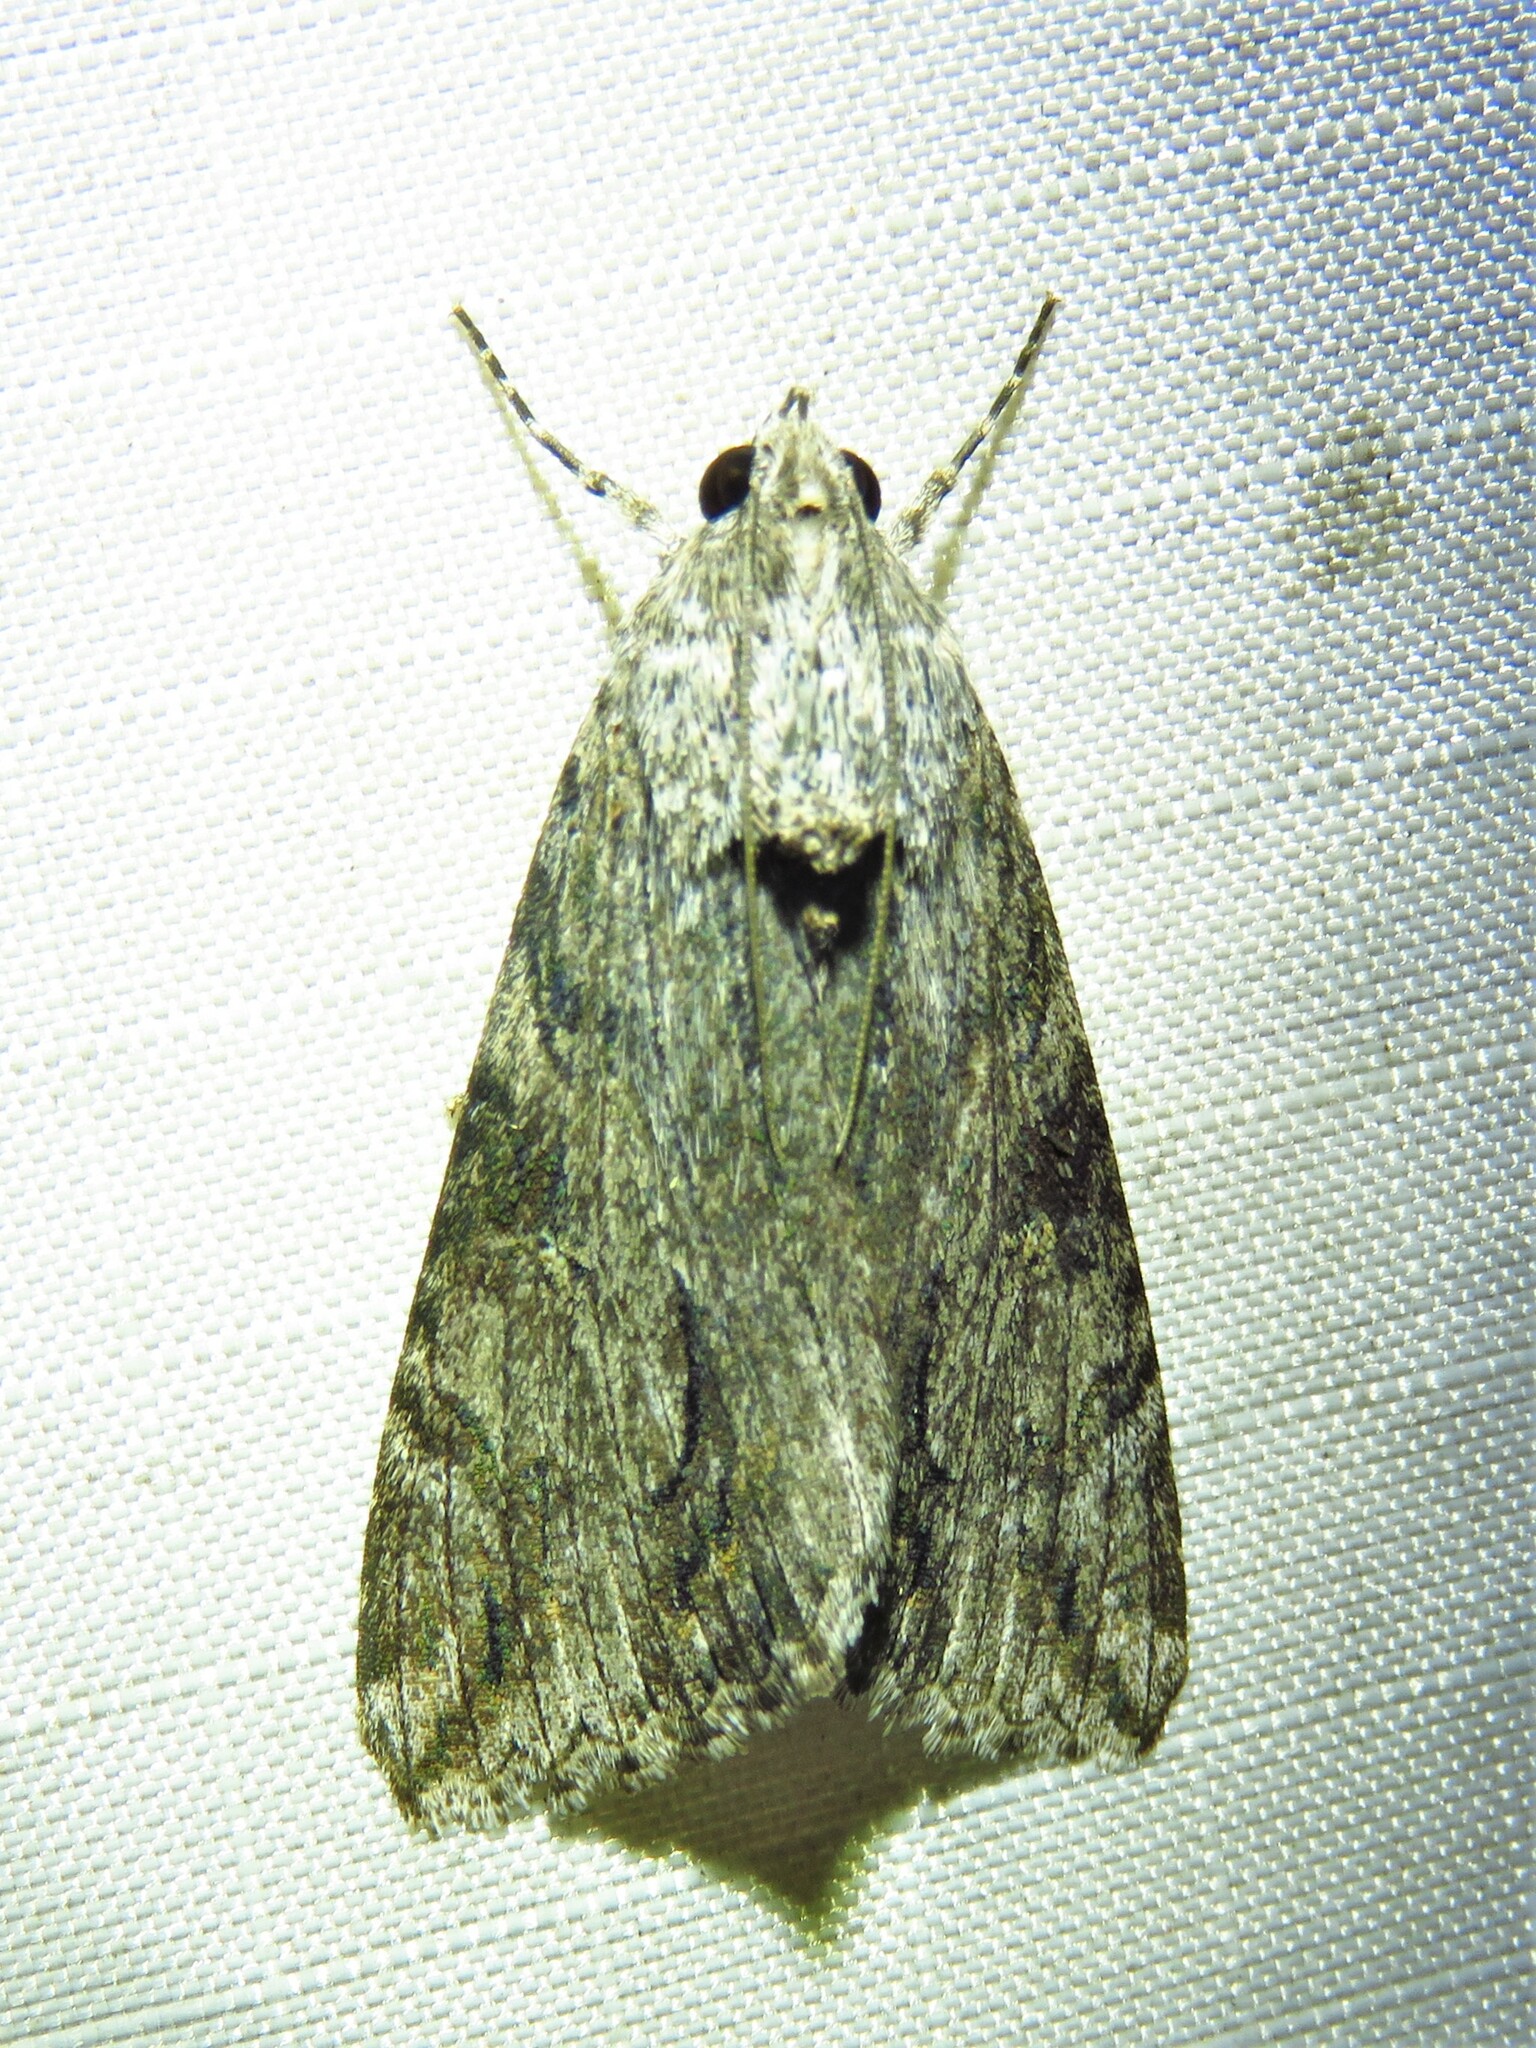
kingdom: Animalia
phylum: Arthropoda
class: Insecta
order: Lepidoptera
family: Erebidae
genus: Melipotis
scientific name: Melipotis jucunda
